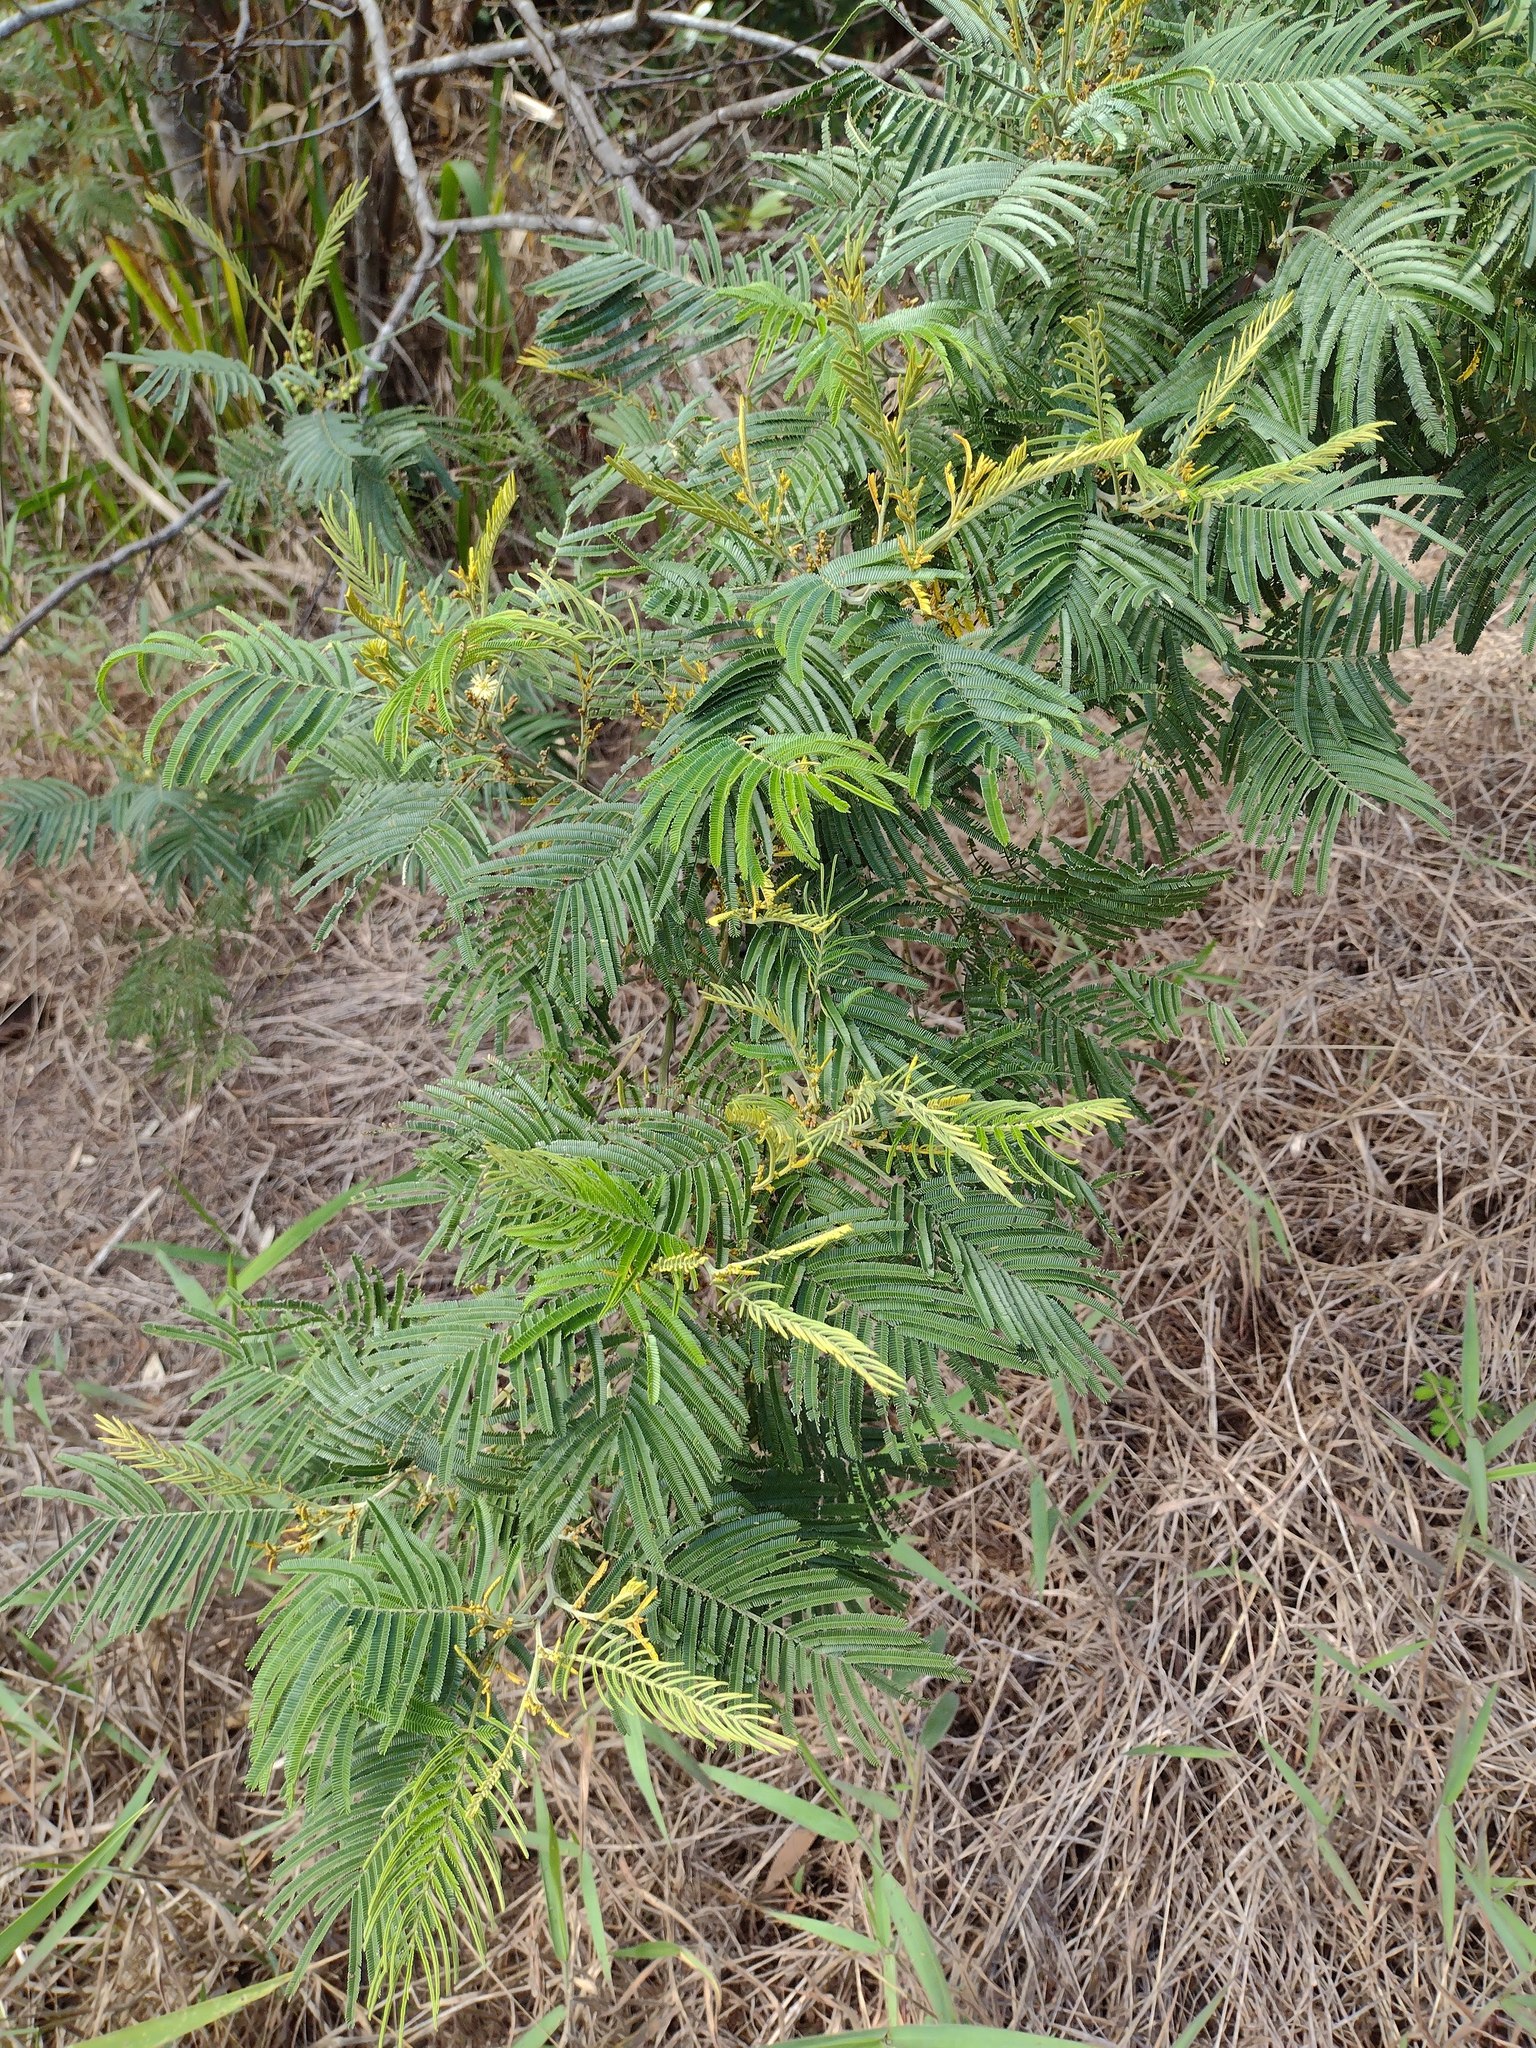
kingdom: Plantae
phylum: Tracheophyta
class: Magnoliopsida
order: Fabales
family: Fabaceae
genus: Acacia
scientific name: Acacia mearnsii
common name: Black wattle
